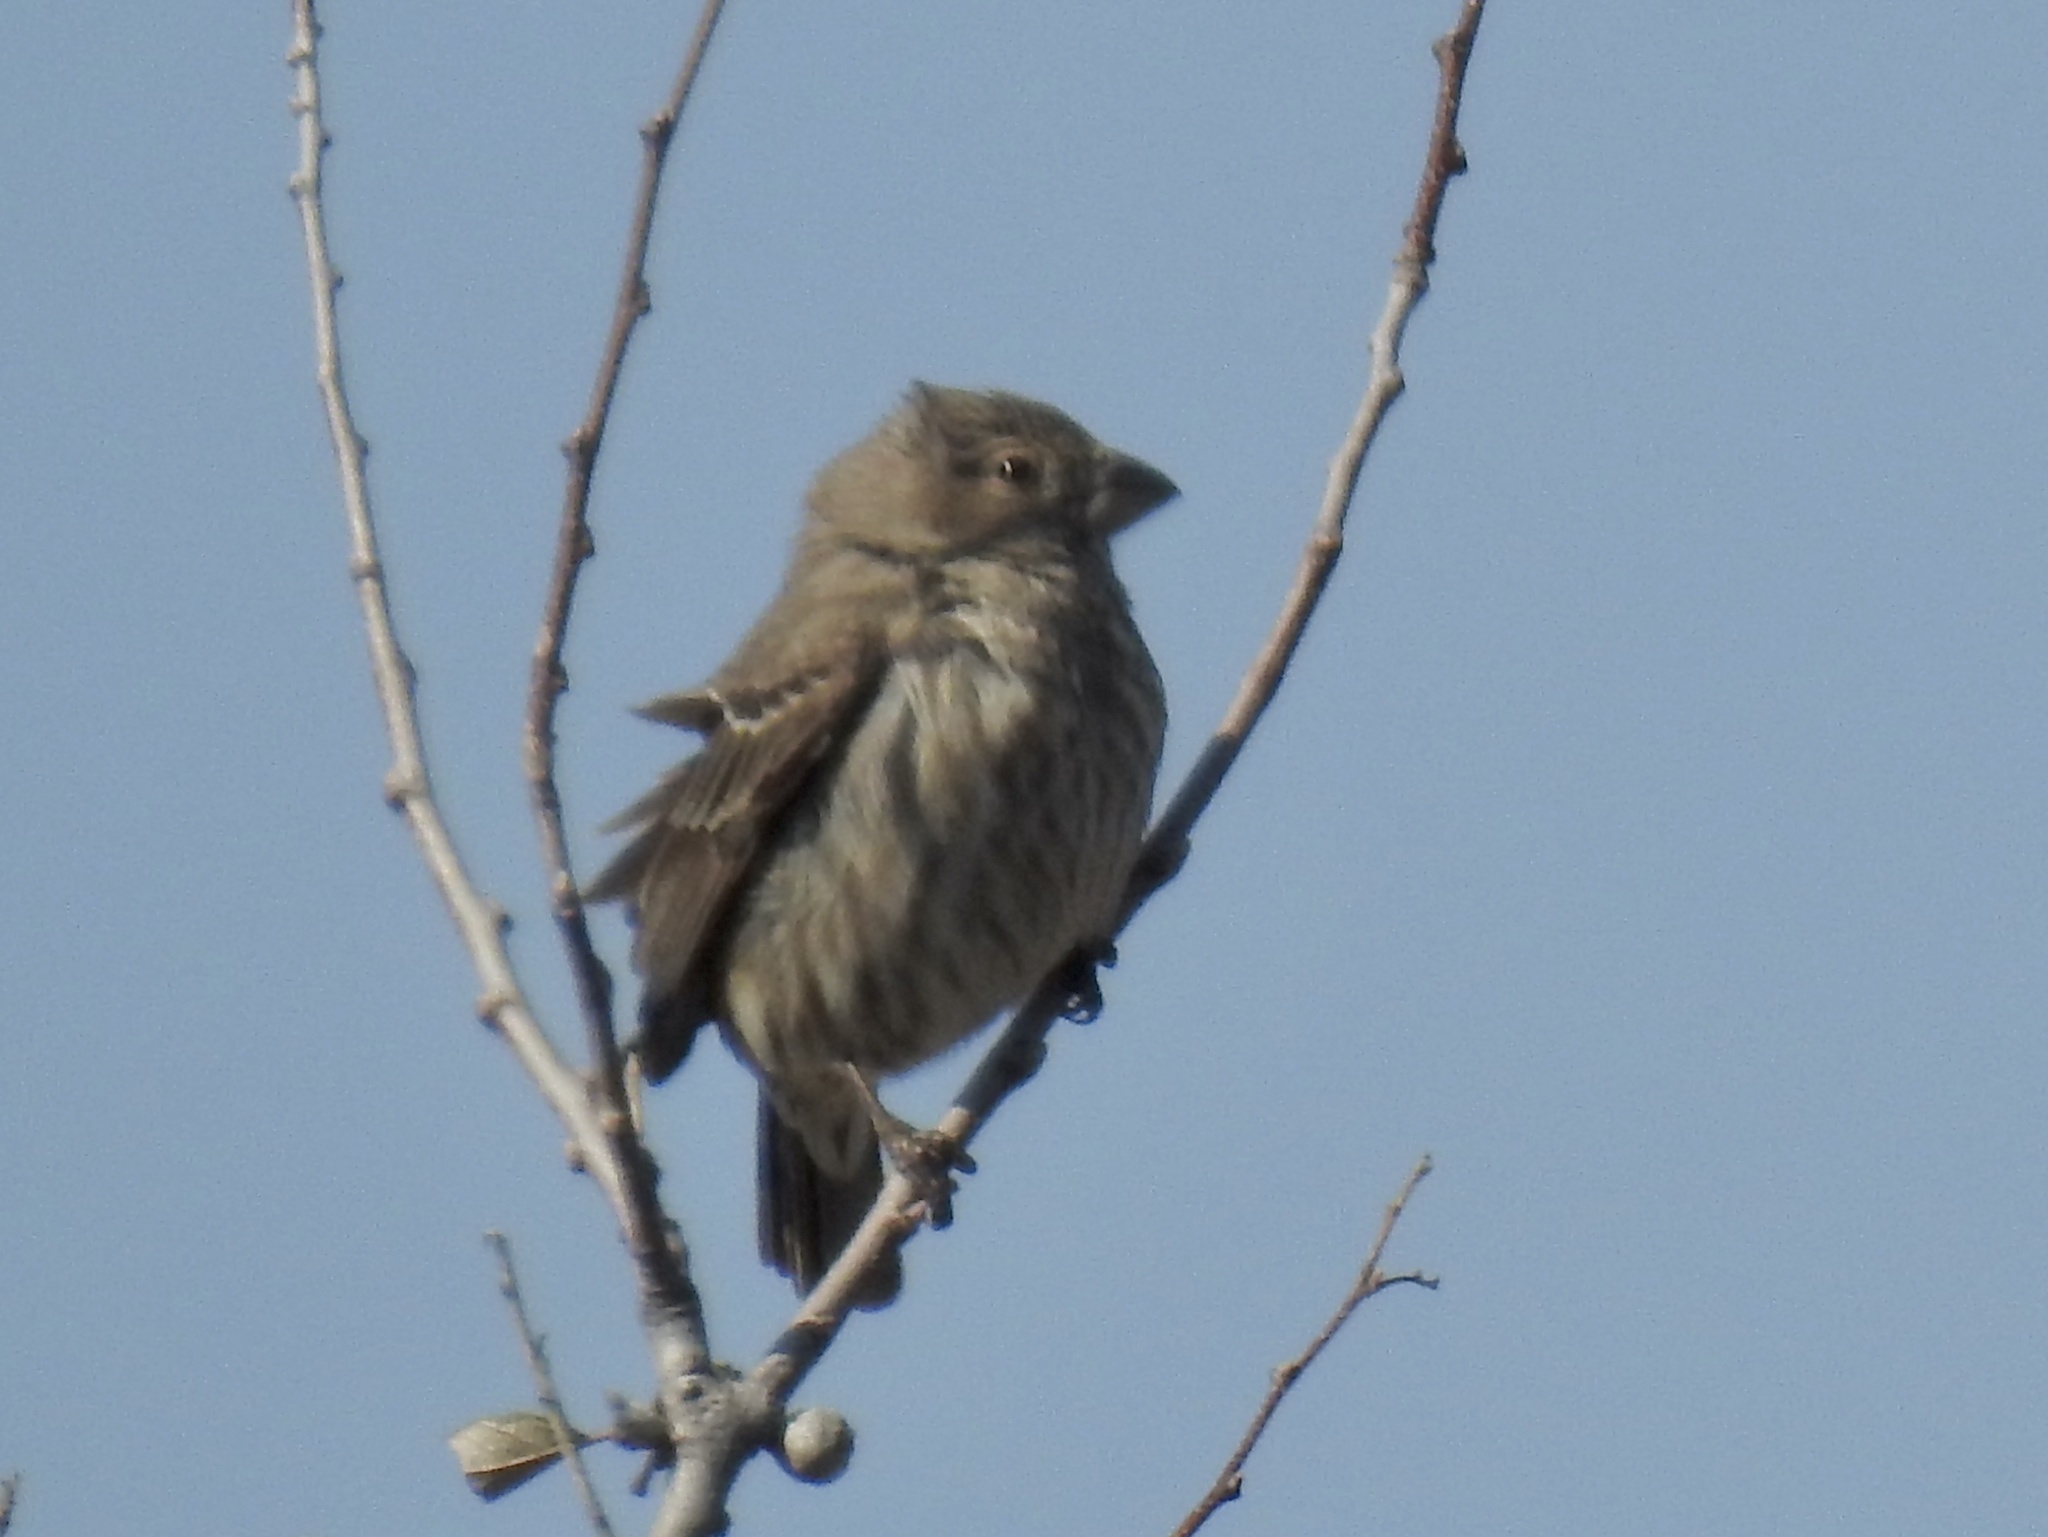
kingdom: Animalia
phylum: Chordata
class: Aves
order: Passeriformes
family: Fringillidae
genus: Haemorhous
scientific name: Haemorhous mexicanus
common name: House finch
